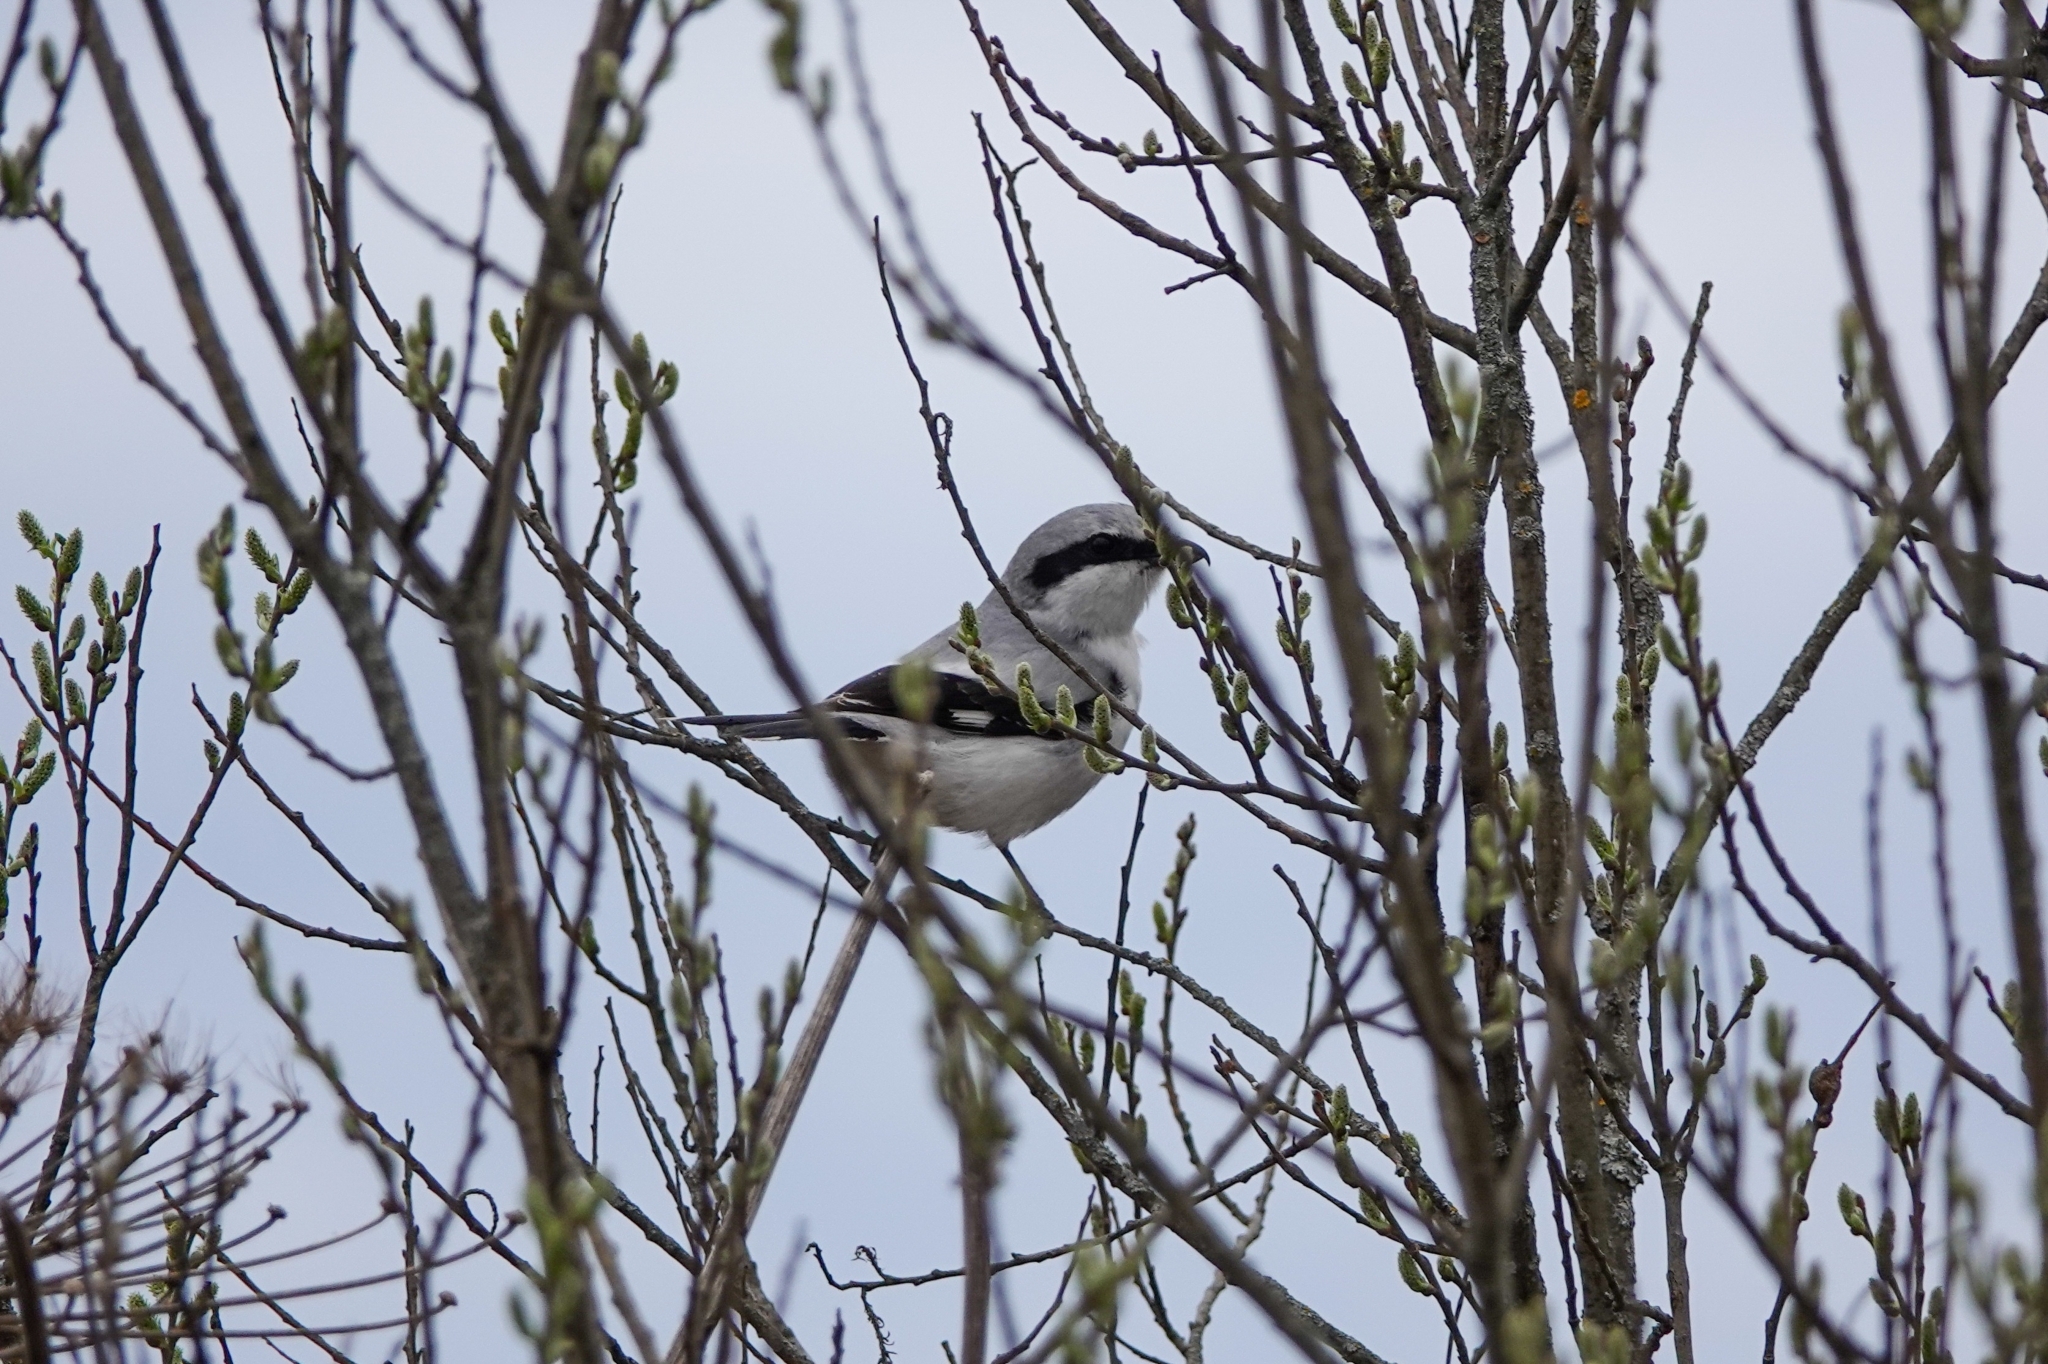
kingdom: Animalia
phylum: Chordata
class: Aves
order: Passeriformes
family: Laniidae
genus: Lanius
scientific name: Lanius excubitor
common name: Great grey shrike
